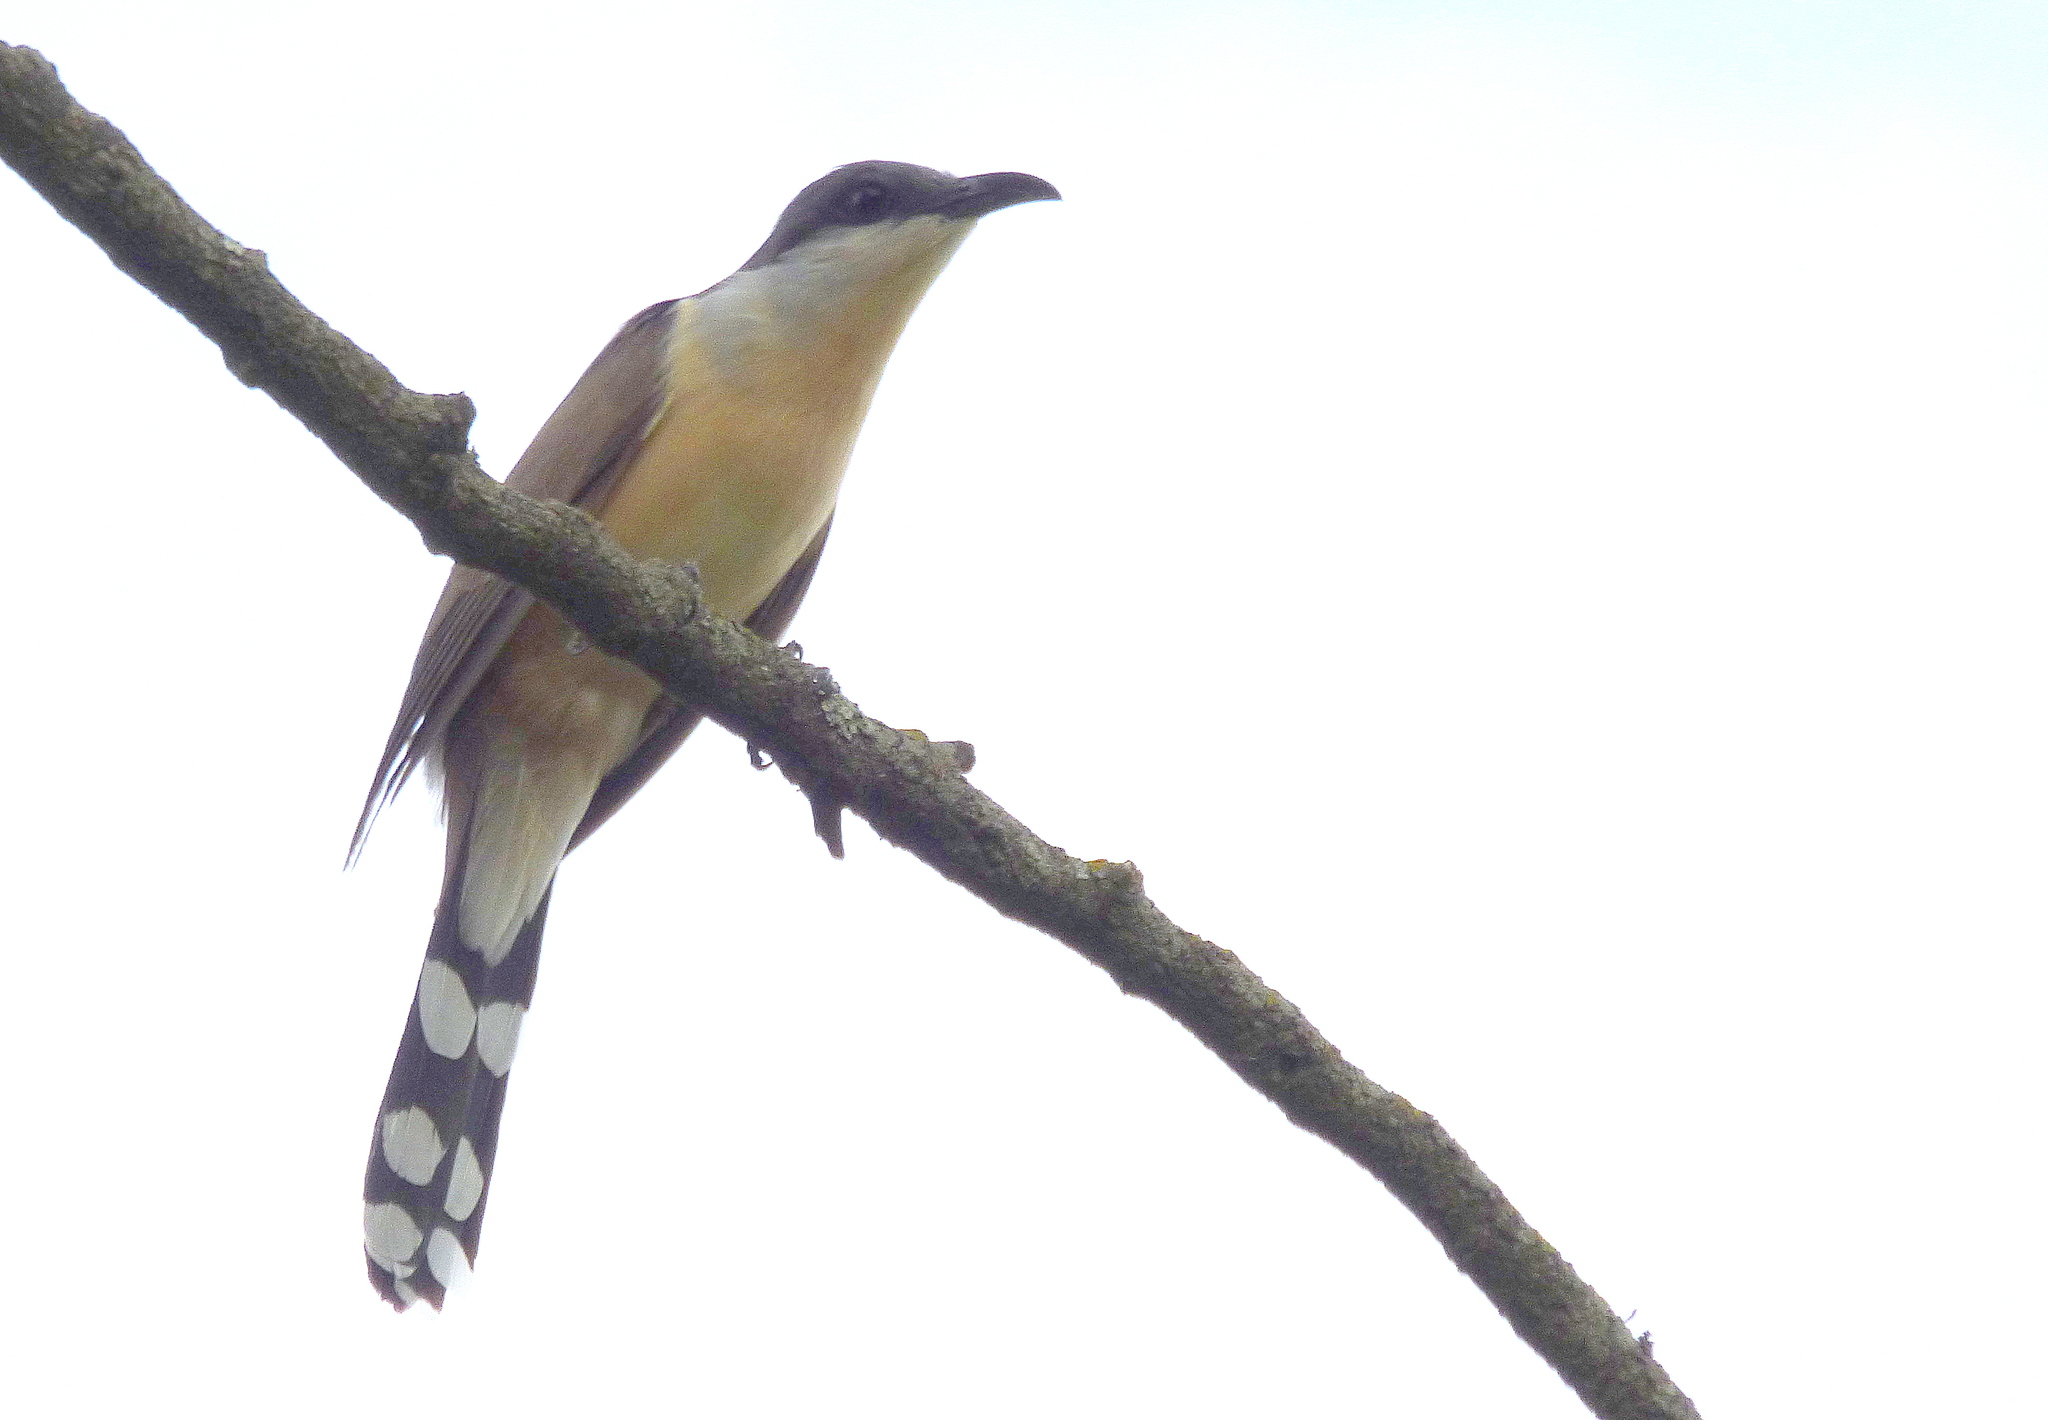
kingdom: Animalia
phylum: Chordata
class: Aves
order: Cuculiformes
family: Cuculidae
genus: Coccyzus
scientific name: Coccyzus melacoryphus
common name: Dark-billed cuckoo
